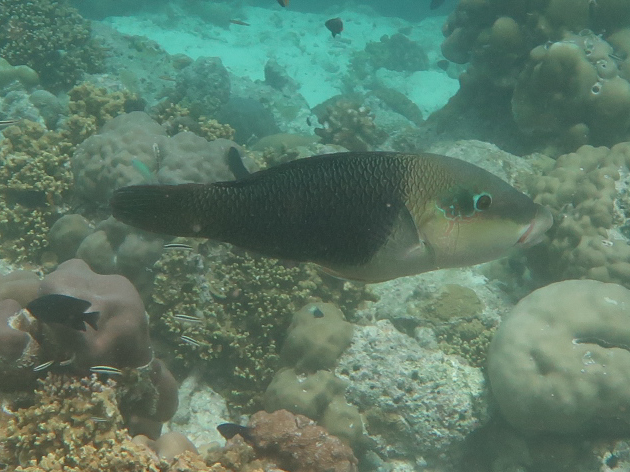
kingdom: Animalia
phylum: Chordata
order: Perciformes
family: Labridae
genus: Hemigymnus
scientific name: Hemigymnus melapterus
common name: Blackeye thicklip
